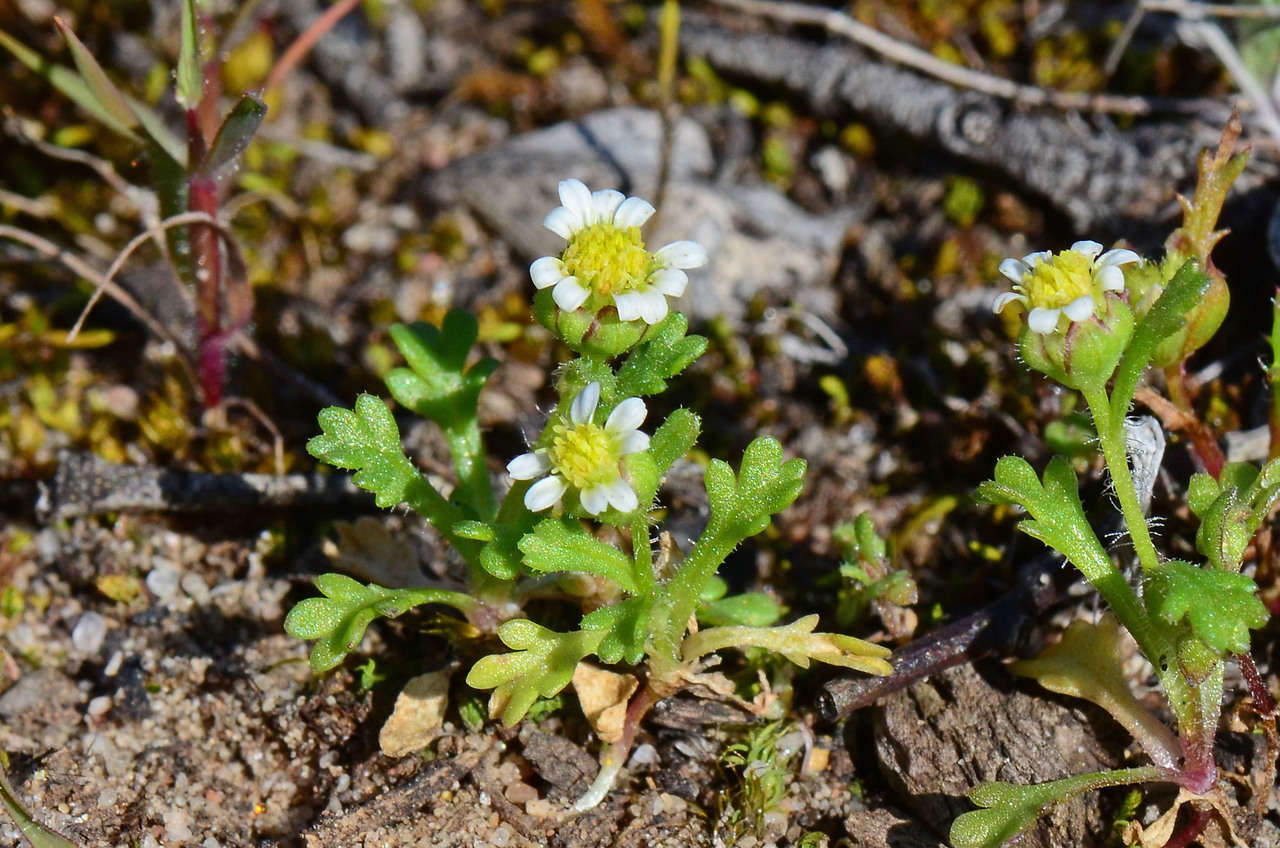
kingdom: Plantae
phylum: Tracheophyta
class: Magnoliopsida
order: Asterales
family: Asteraceae
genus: Brachyscome
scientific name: Brachyscome goniocarpa
